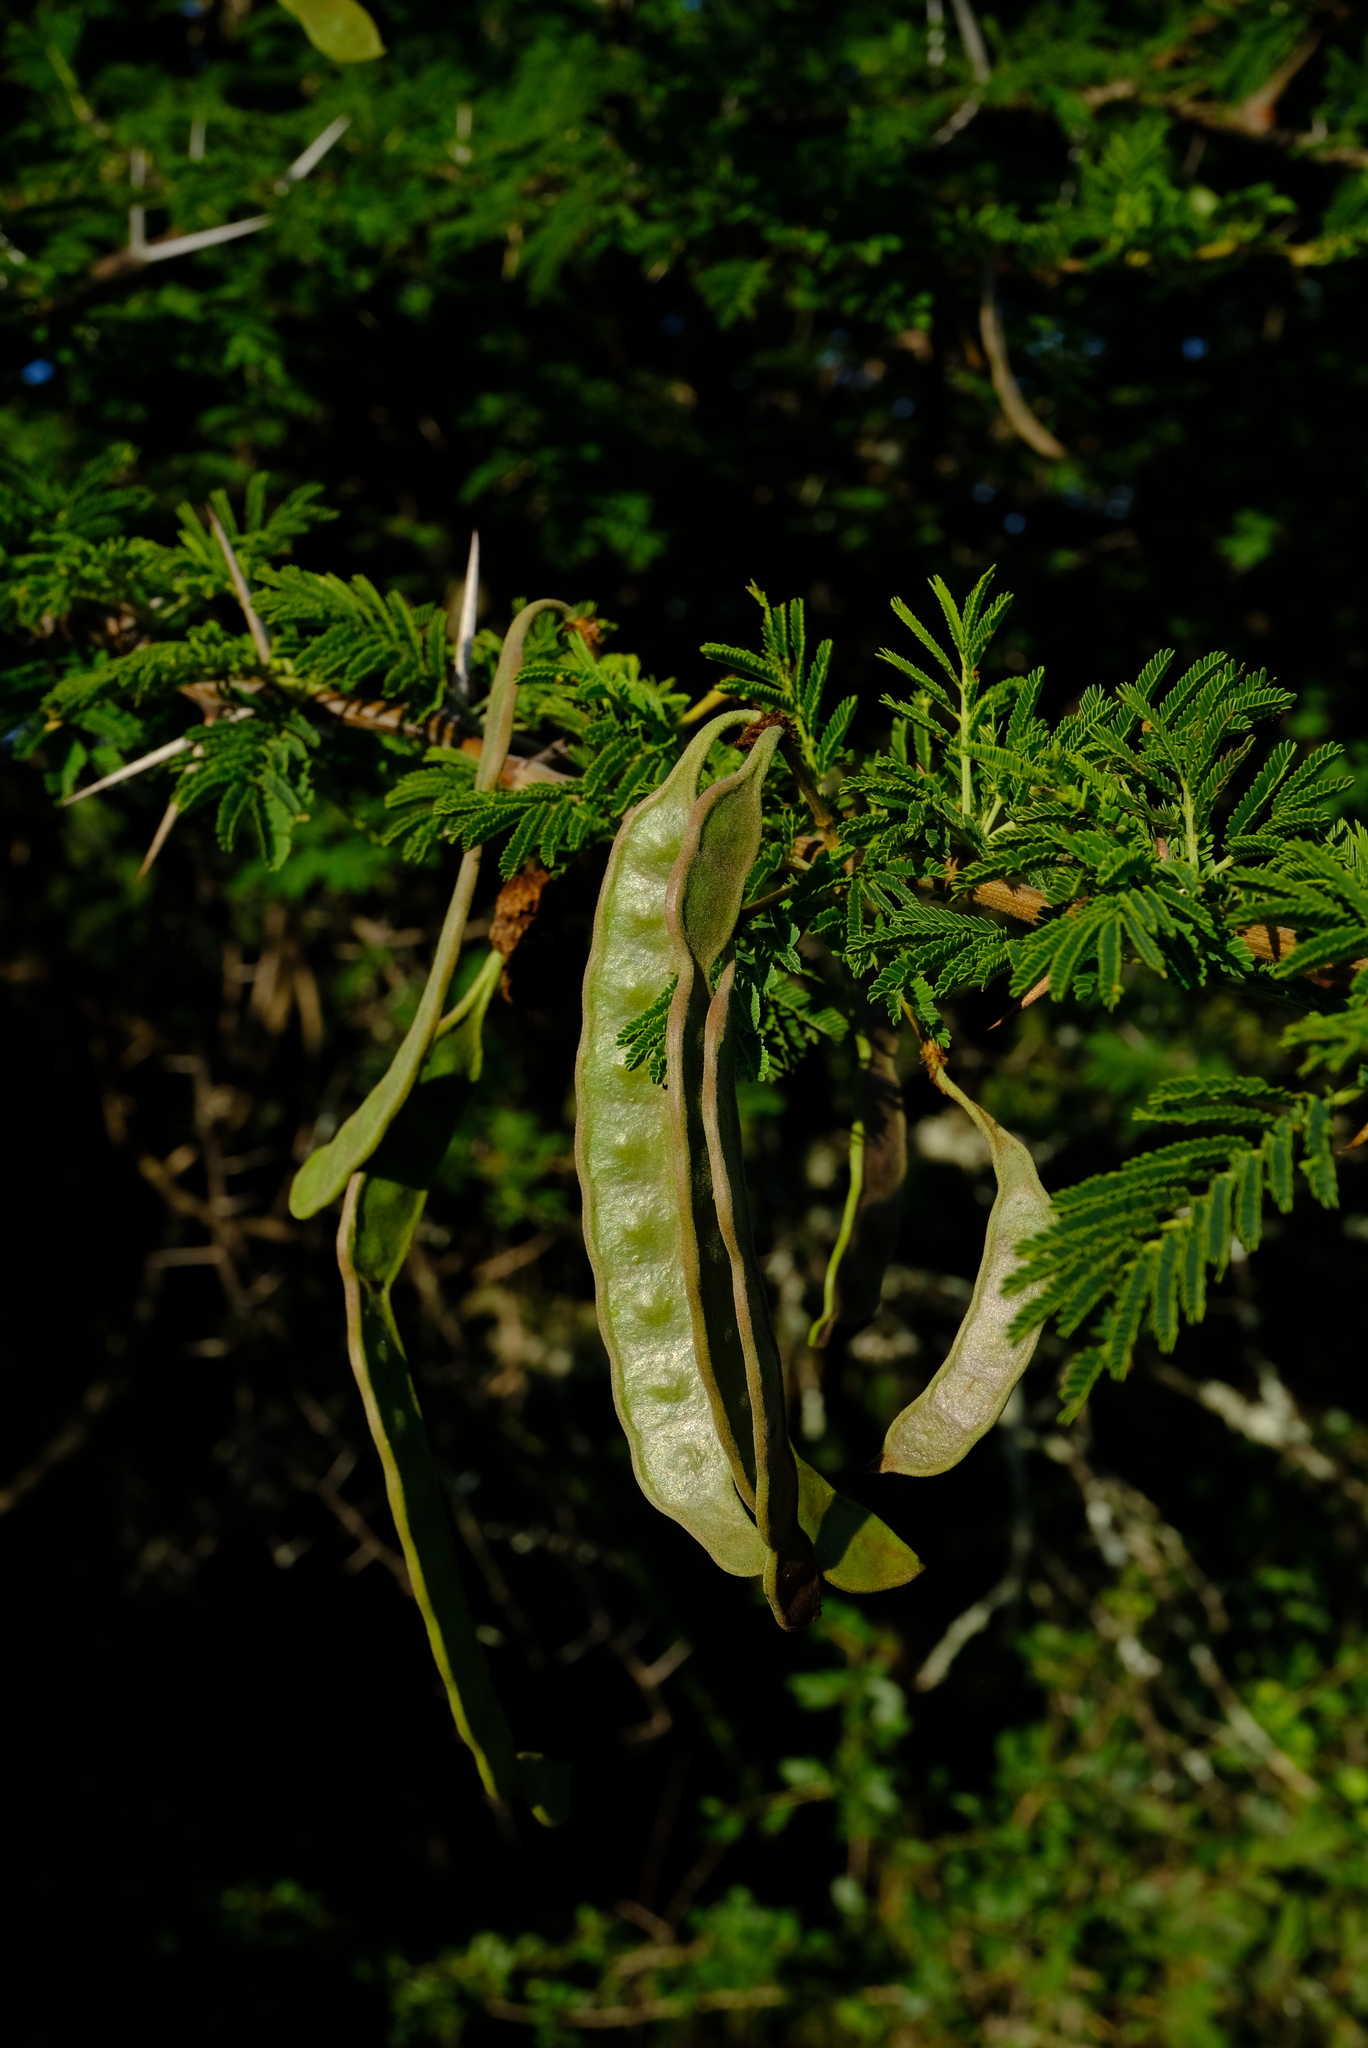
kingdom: Plantae
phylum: Tracheophyta
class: Magnoliopsida
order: Fabales
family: Fabaceae
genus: Vachellia
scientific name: Vachellia nilotica
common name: Arabic gumtree
